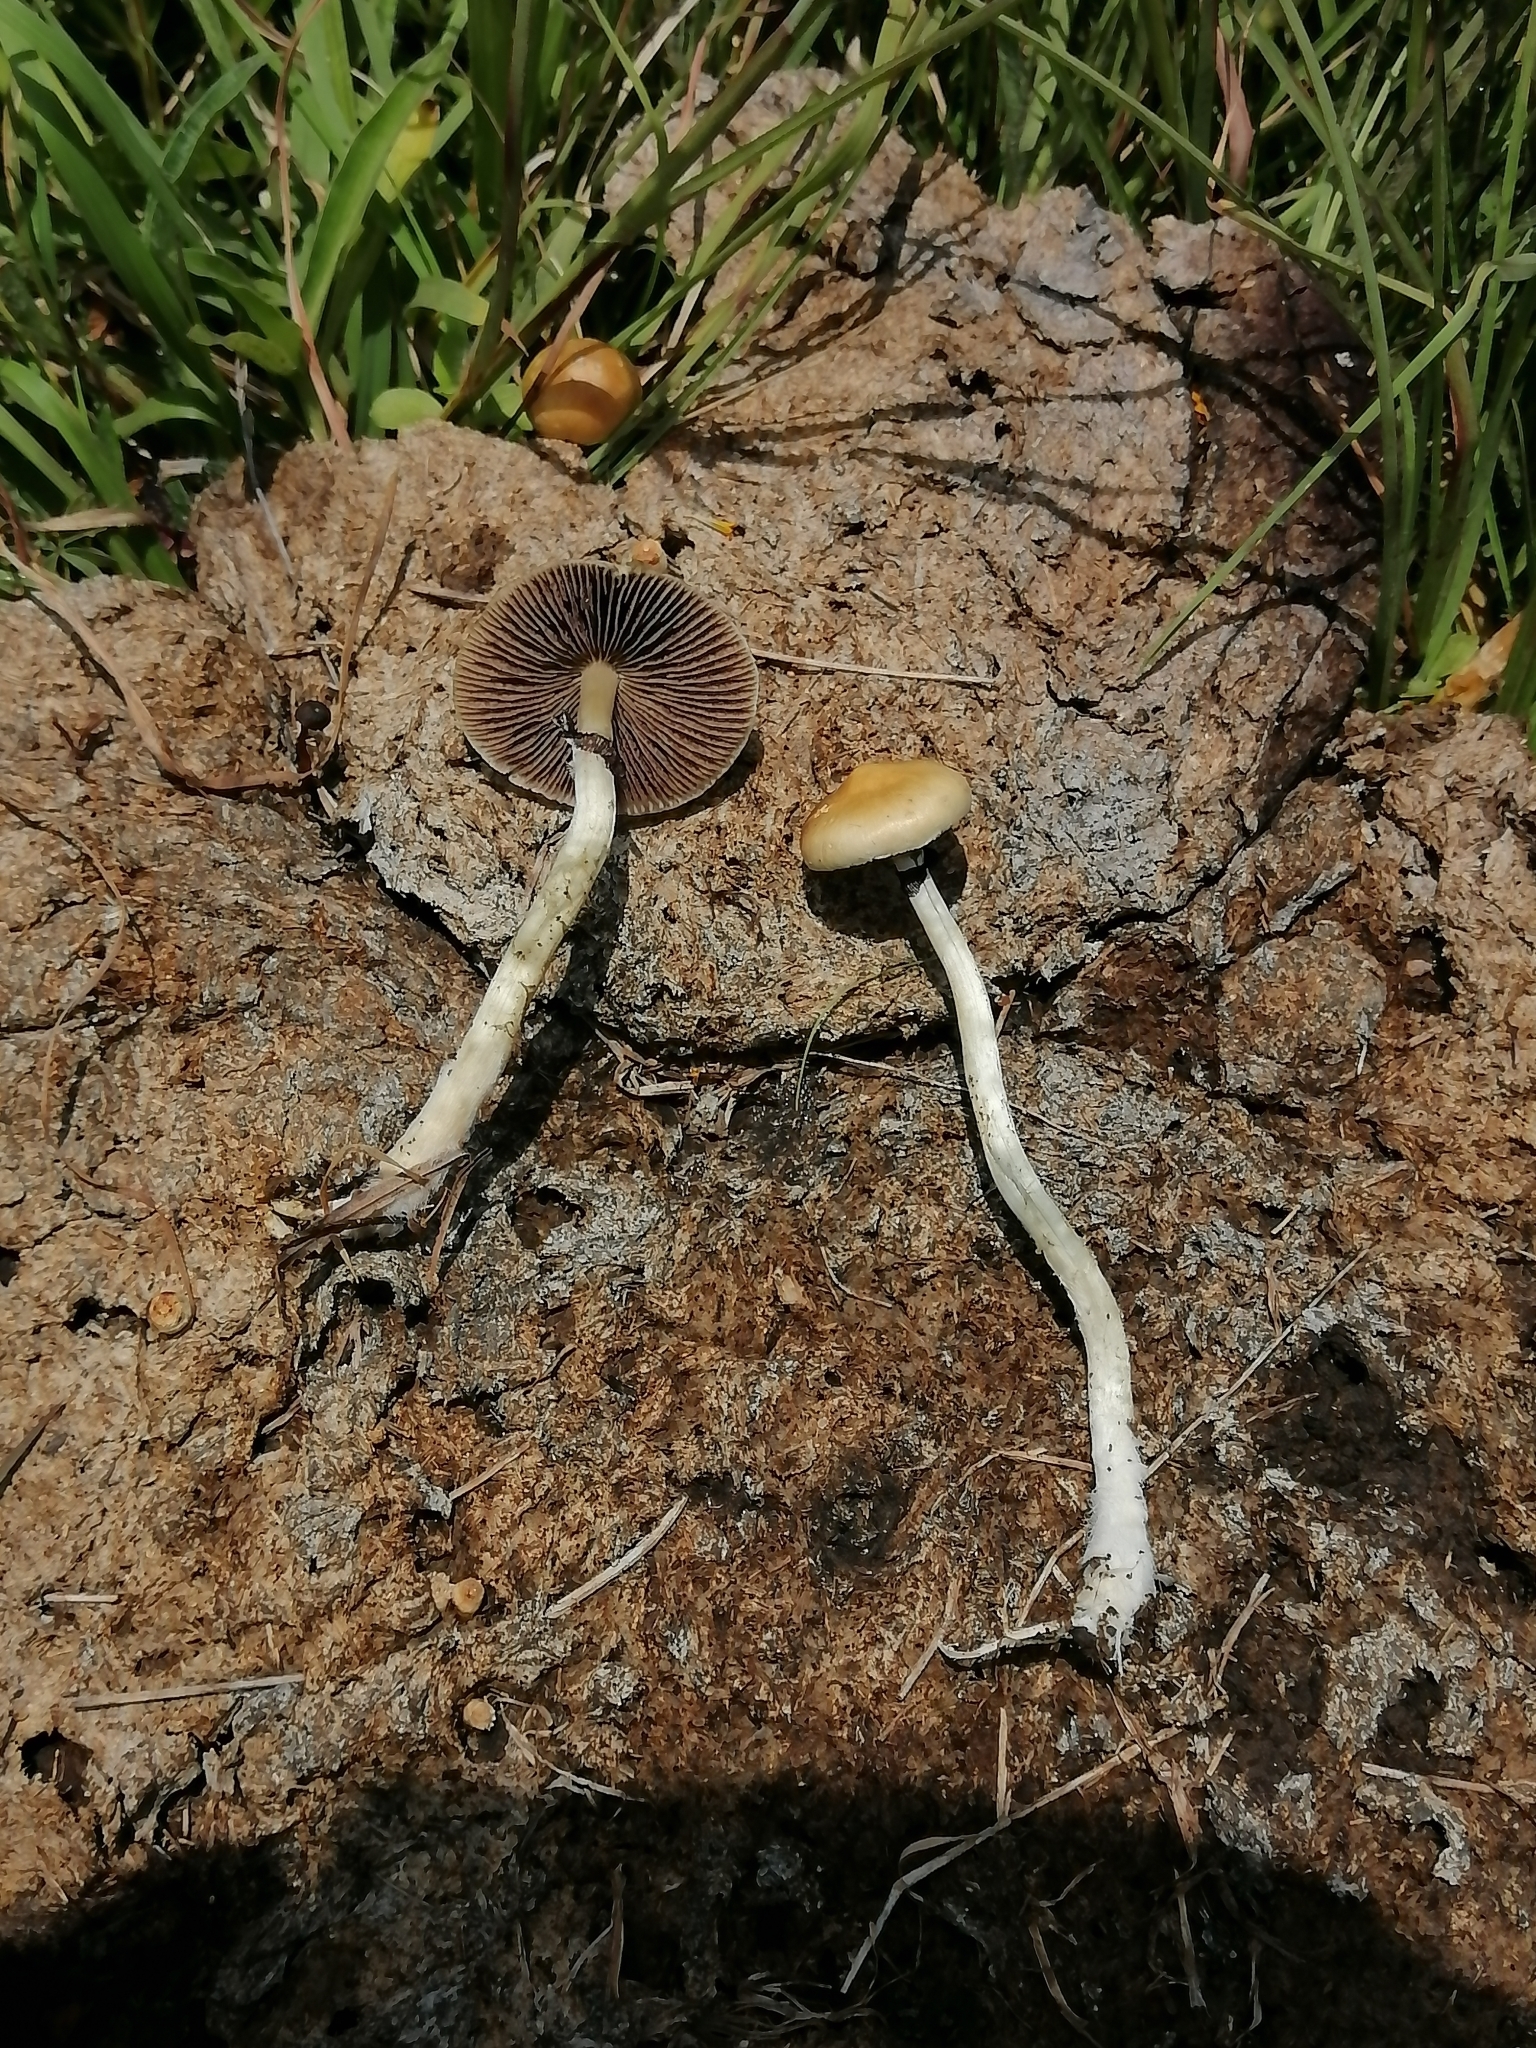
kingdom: Fungi
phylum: Basidiomycota
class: Agaricomycetes
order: Agaricales
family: Hymenogastraceae
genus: Psilocybe
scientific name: Psilocybe cubensis
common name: Golden brownie
